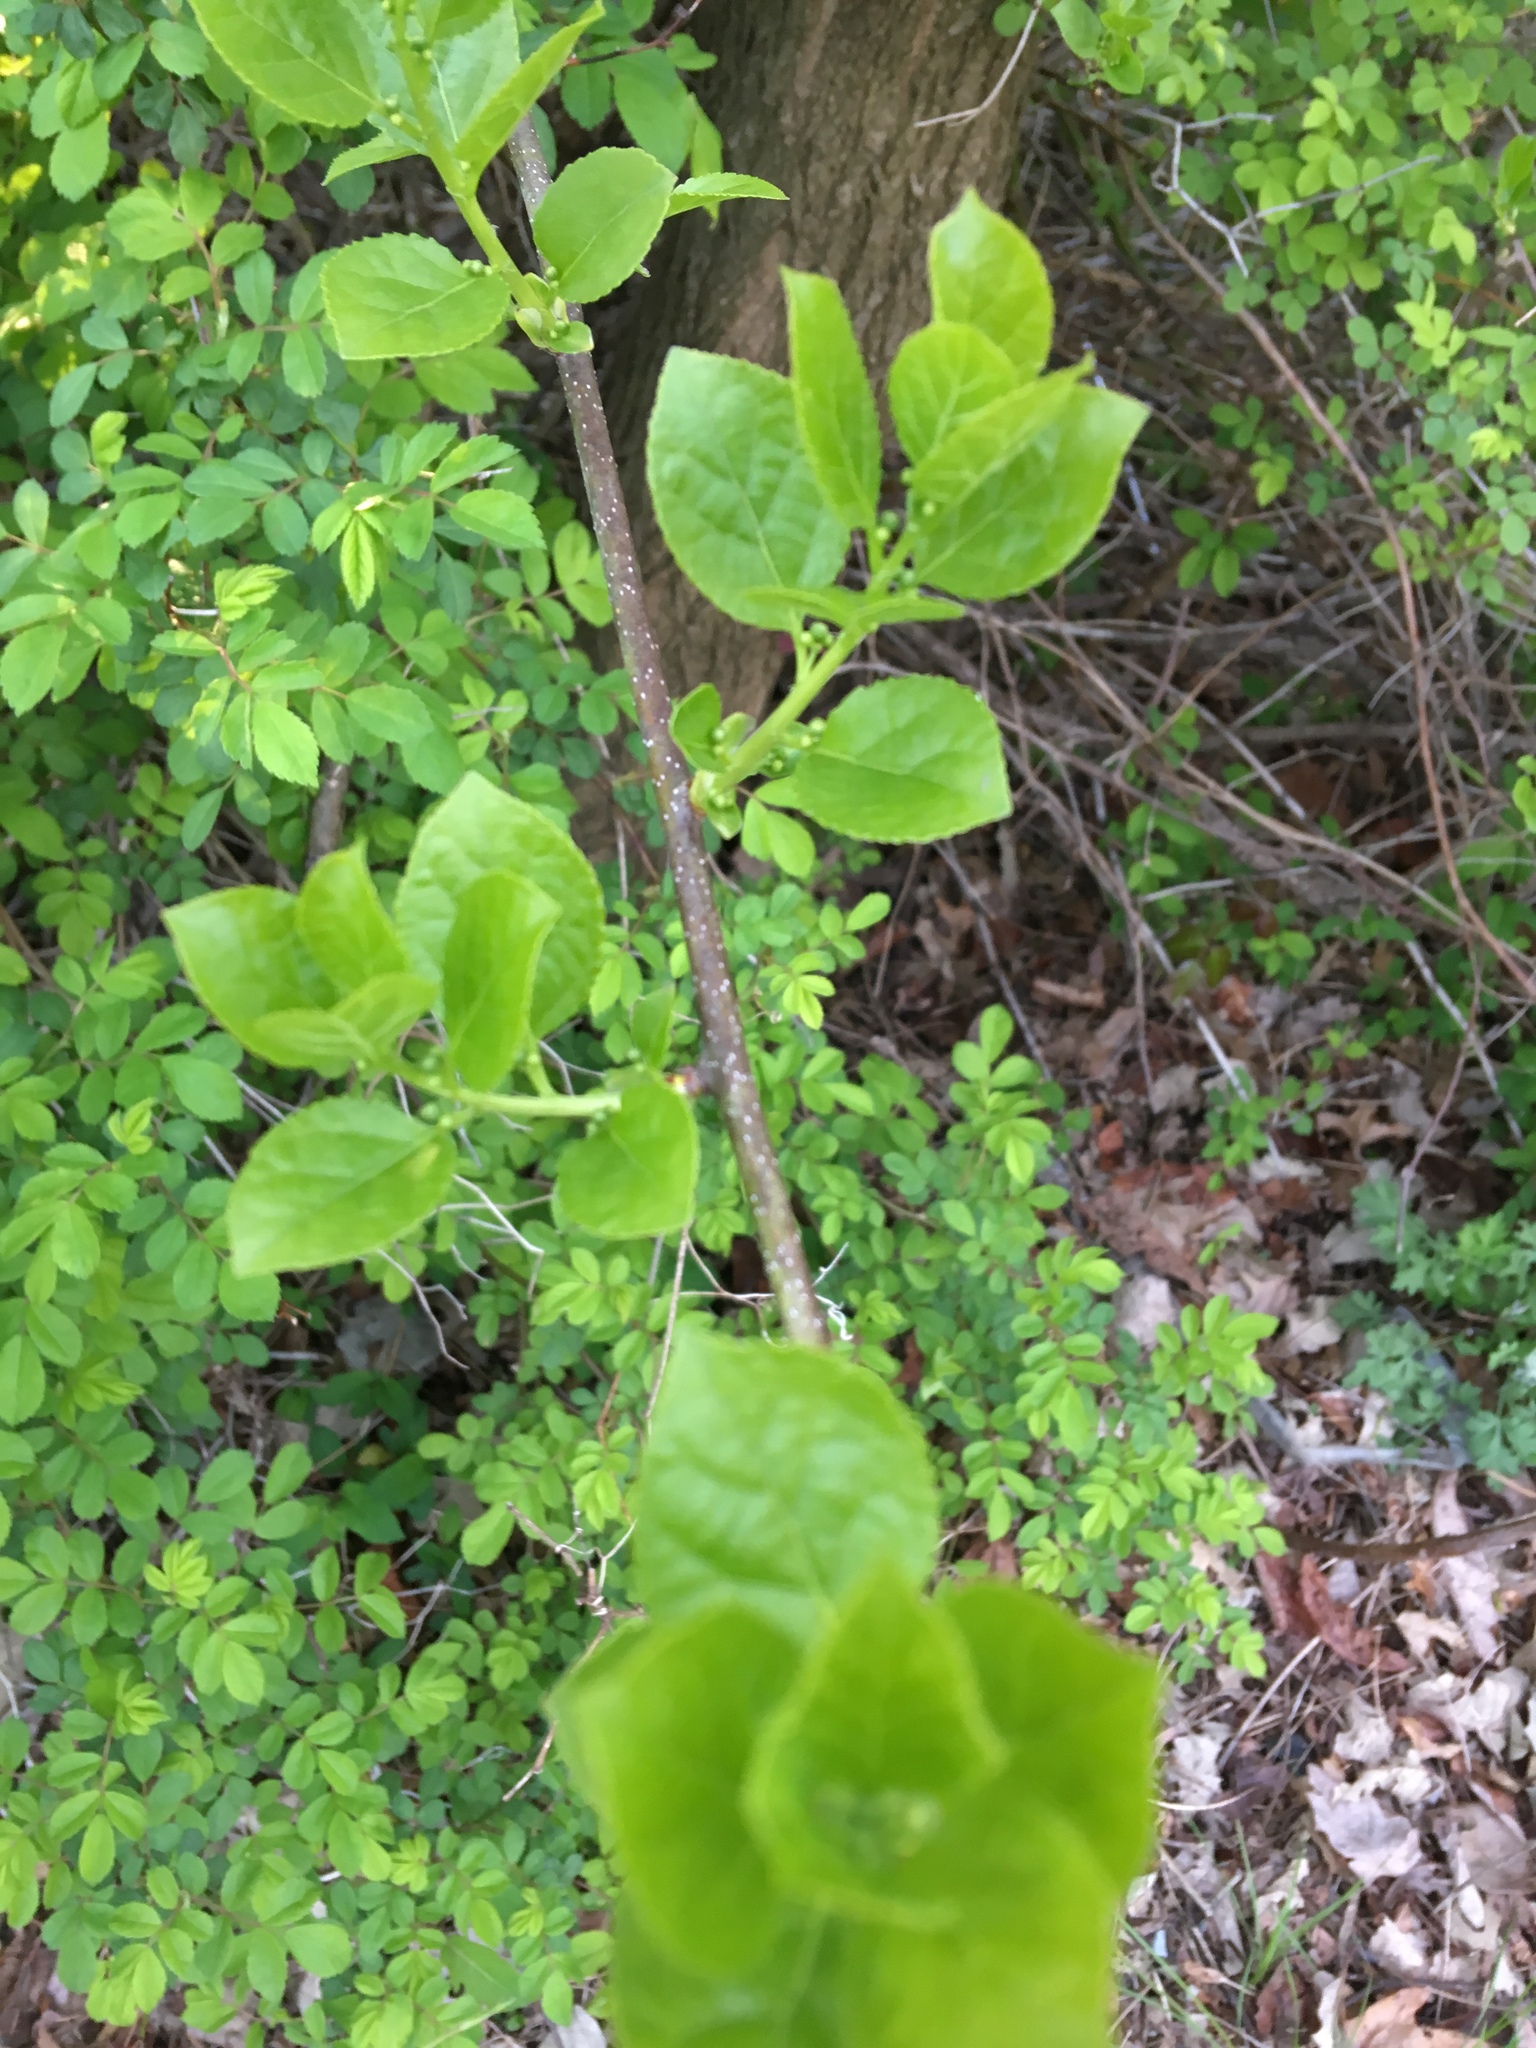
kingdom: Plantae
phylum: Tracheophyta
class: Magnoliopsida
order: Celastrales
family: Celastraceae
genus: Celastrus
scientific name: Celastrus orbiculatus
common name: Oriental bittersweet
